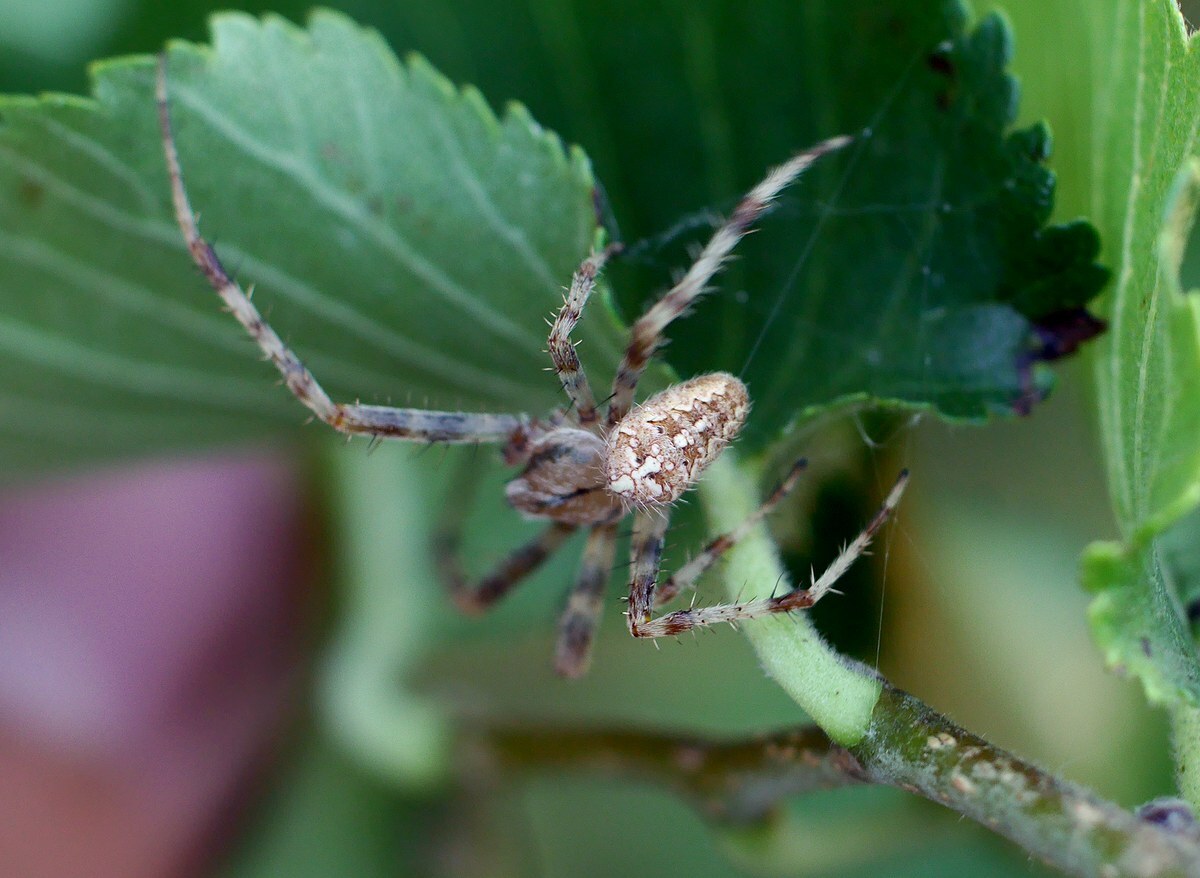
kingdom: Animalia
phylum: Arthropoda
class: Arachnida
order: Araneae
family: Araneidae
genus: Araneus
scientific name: Araneus diadematus
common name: Cross orbweaver
